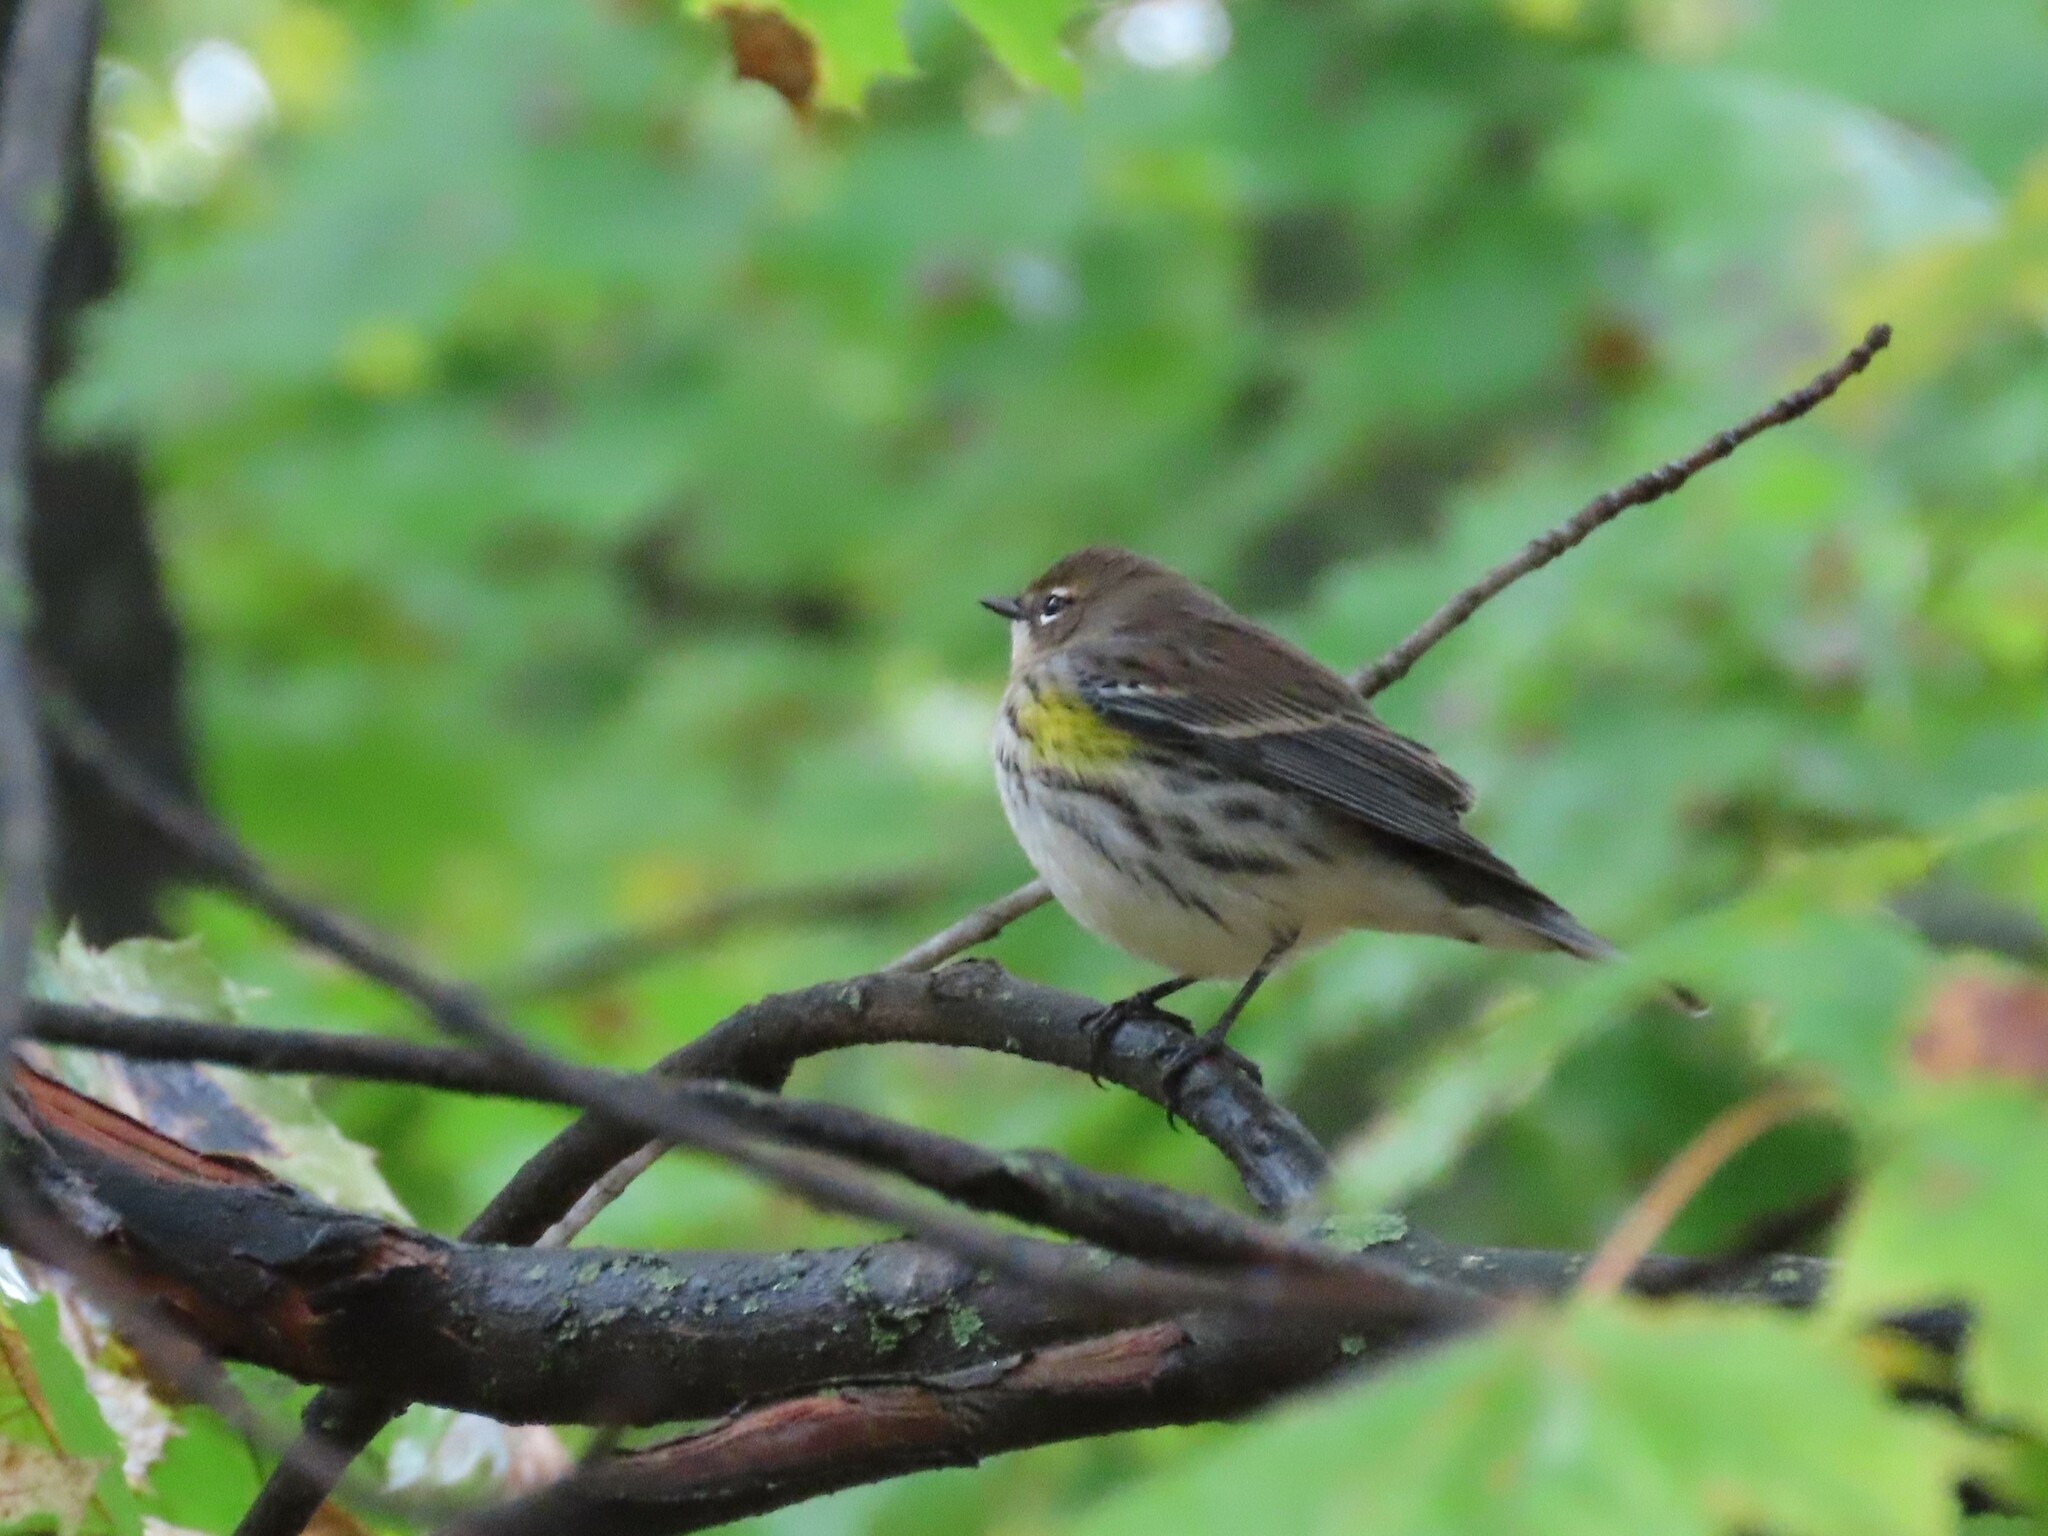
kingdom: Animalia
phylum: Chordata
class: Aves
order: Passeriformes
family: Parulidae
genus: Setophaga
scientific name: Setophaga coronata
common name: Myrtle warbler
